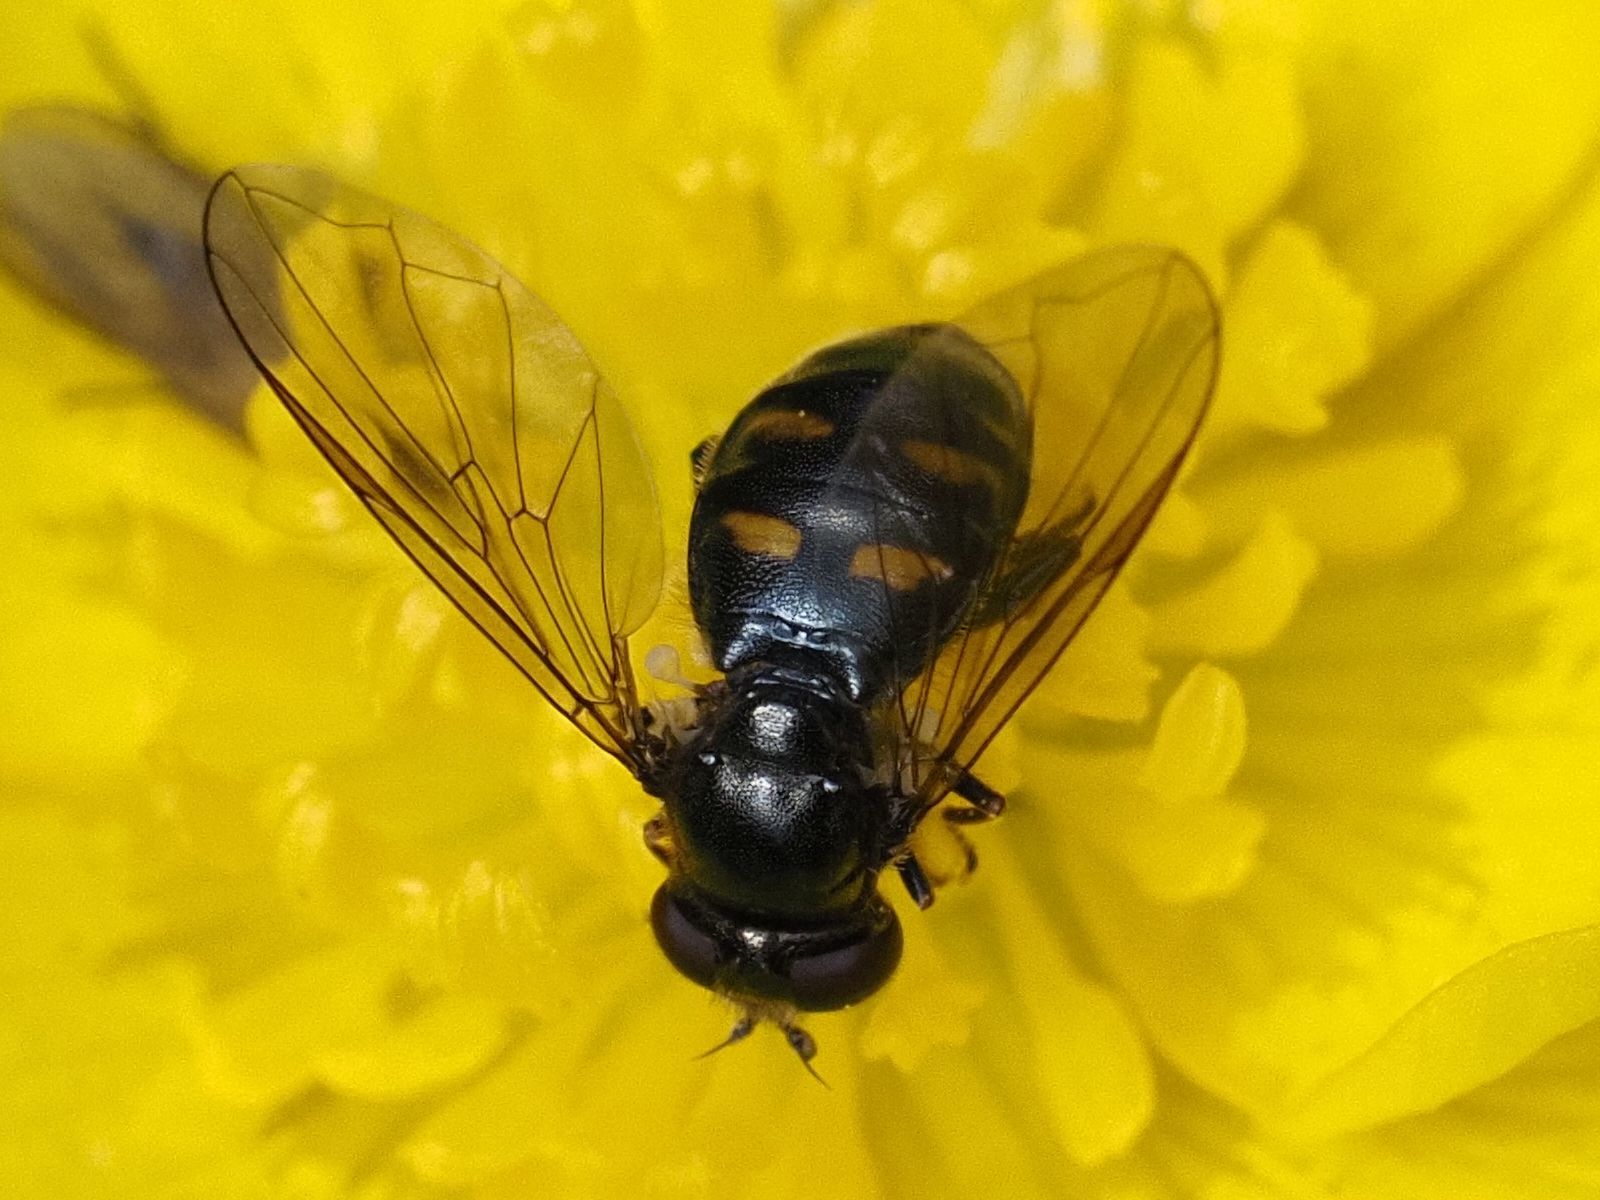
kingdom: Animalia
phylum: Arthropoda
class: Insecta
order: Diptera
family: Syrphidae
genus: Pipiza
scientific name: Pipiza quadrimaculata
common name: Four-spotted pipiza
